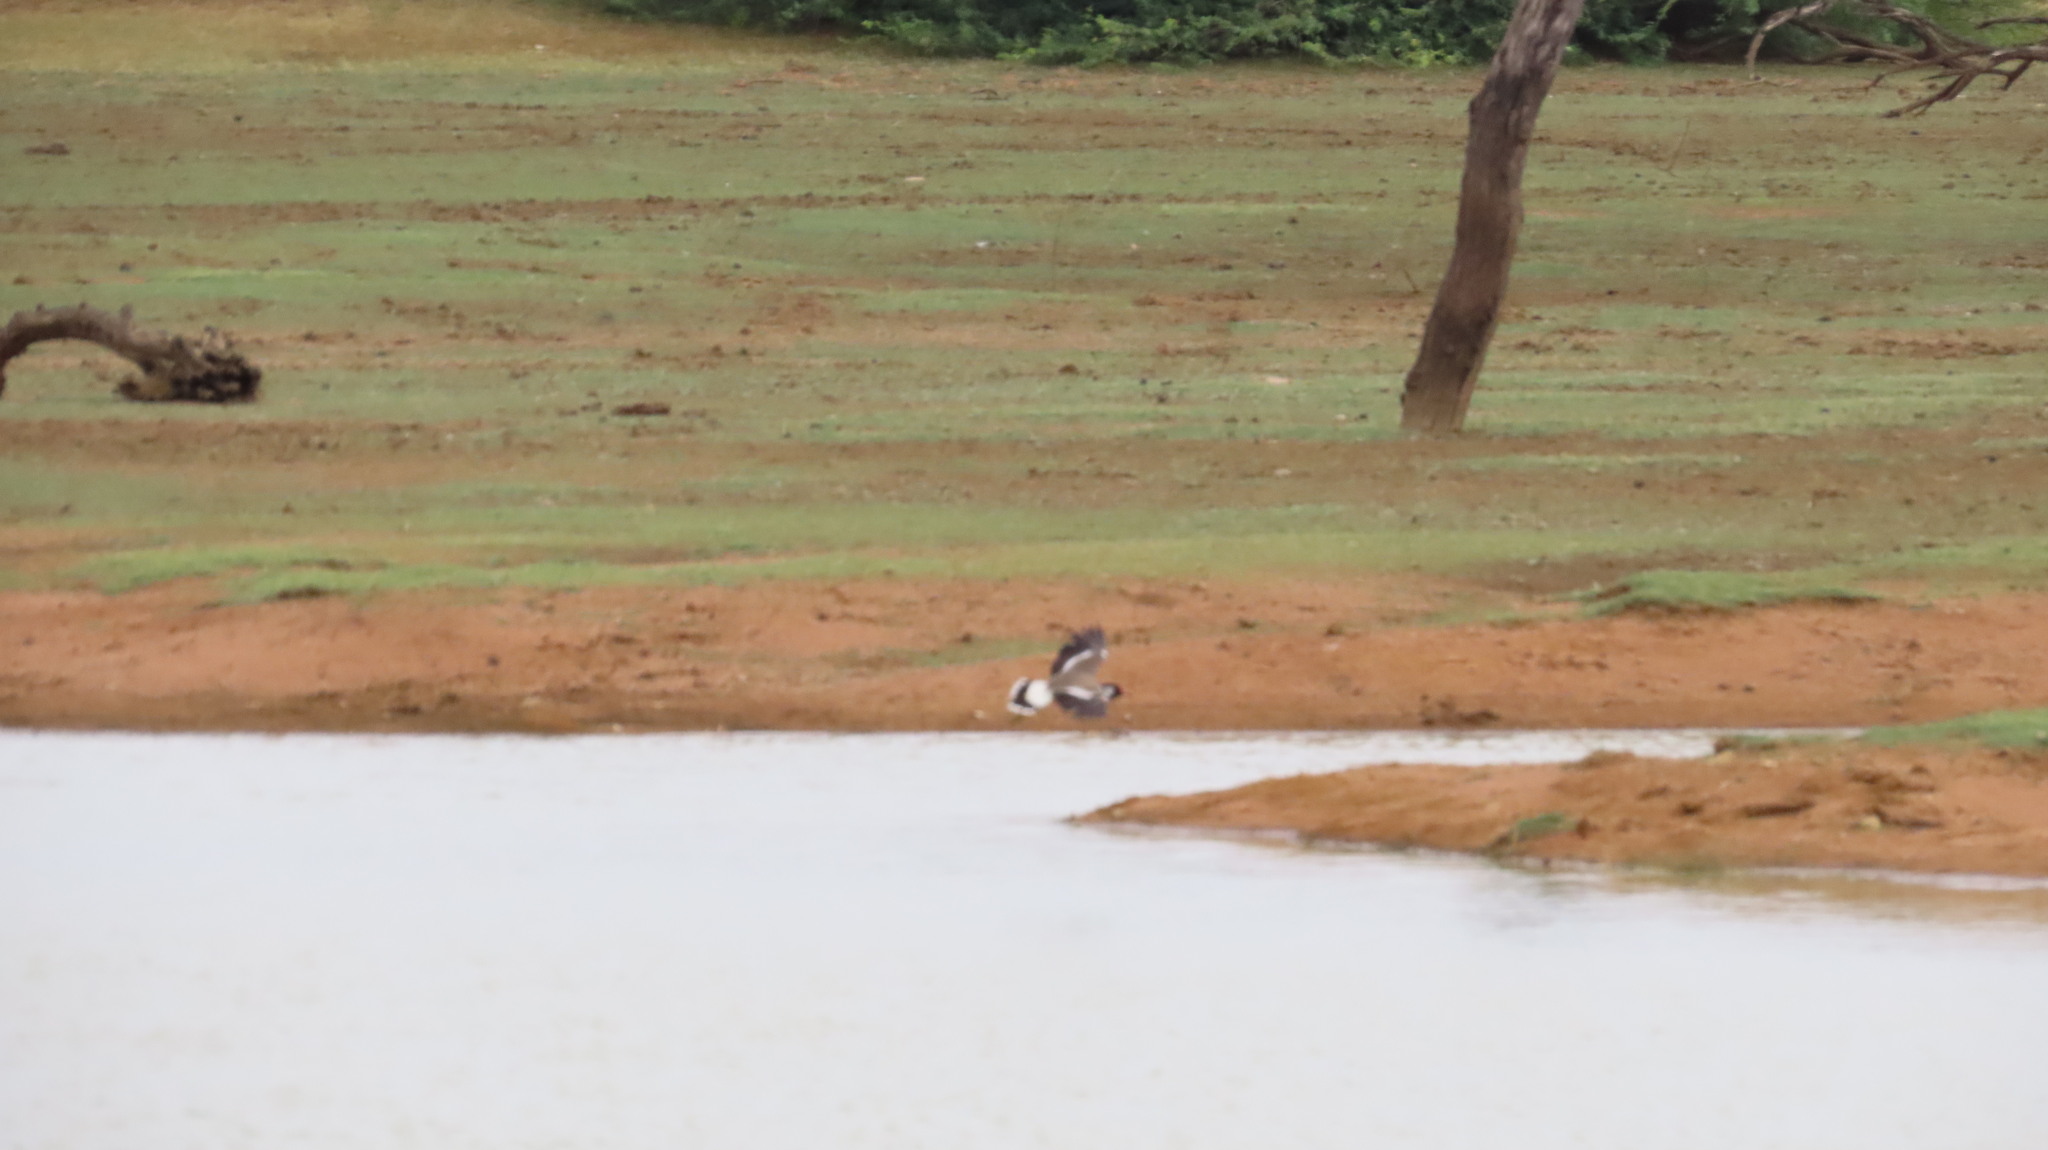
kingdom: Animalia
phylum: Chordata
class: Aves
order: Charadriiformes
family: Charadriidae
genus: Vanellus
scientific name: Vanellus indicus
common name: Red-wattled lapwing
